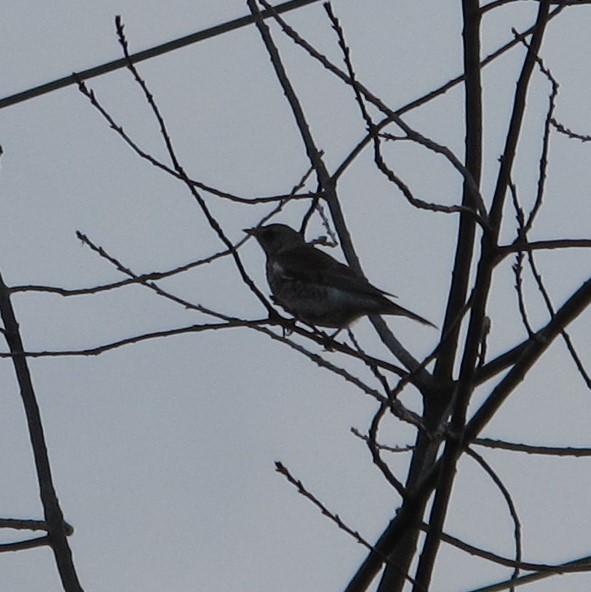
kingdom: Animalia
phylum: Chordata
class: Aves
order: Passeriformes
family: Turdidae
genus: Turdus
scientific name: Turdus pilaris
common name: Fieldfare
